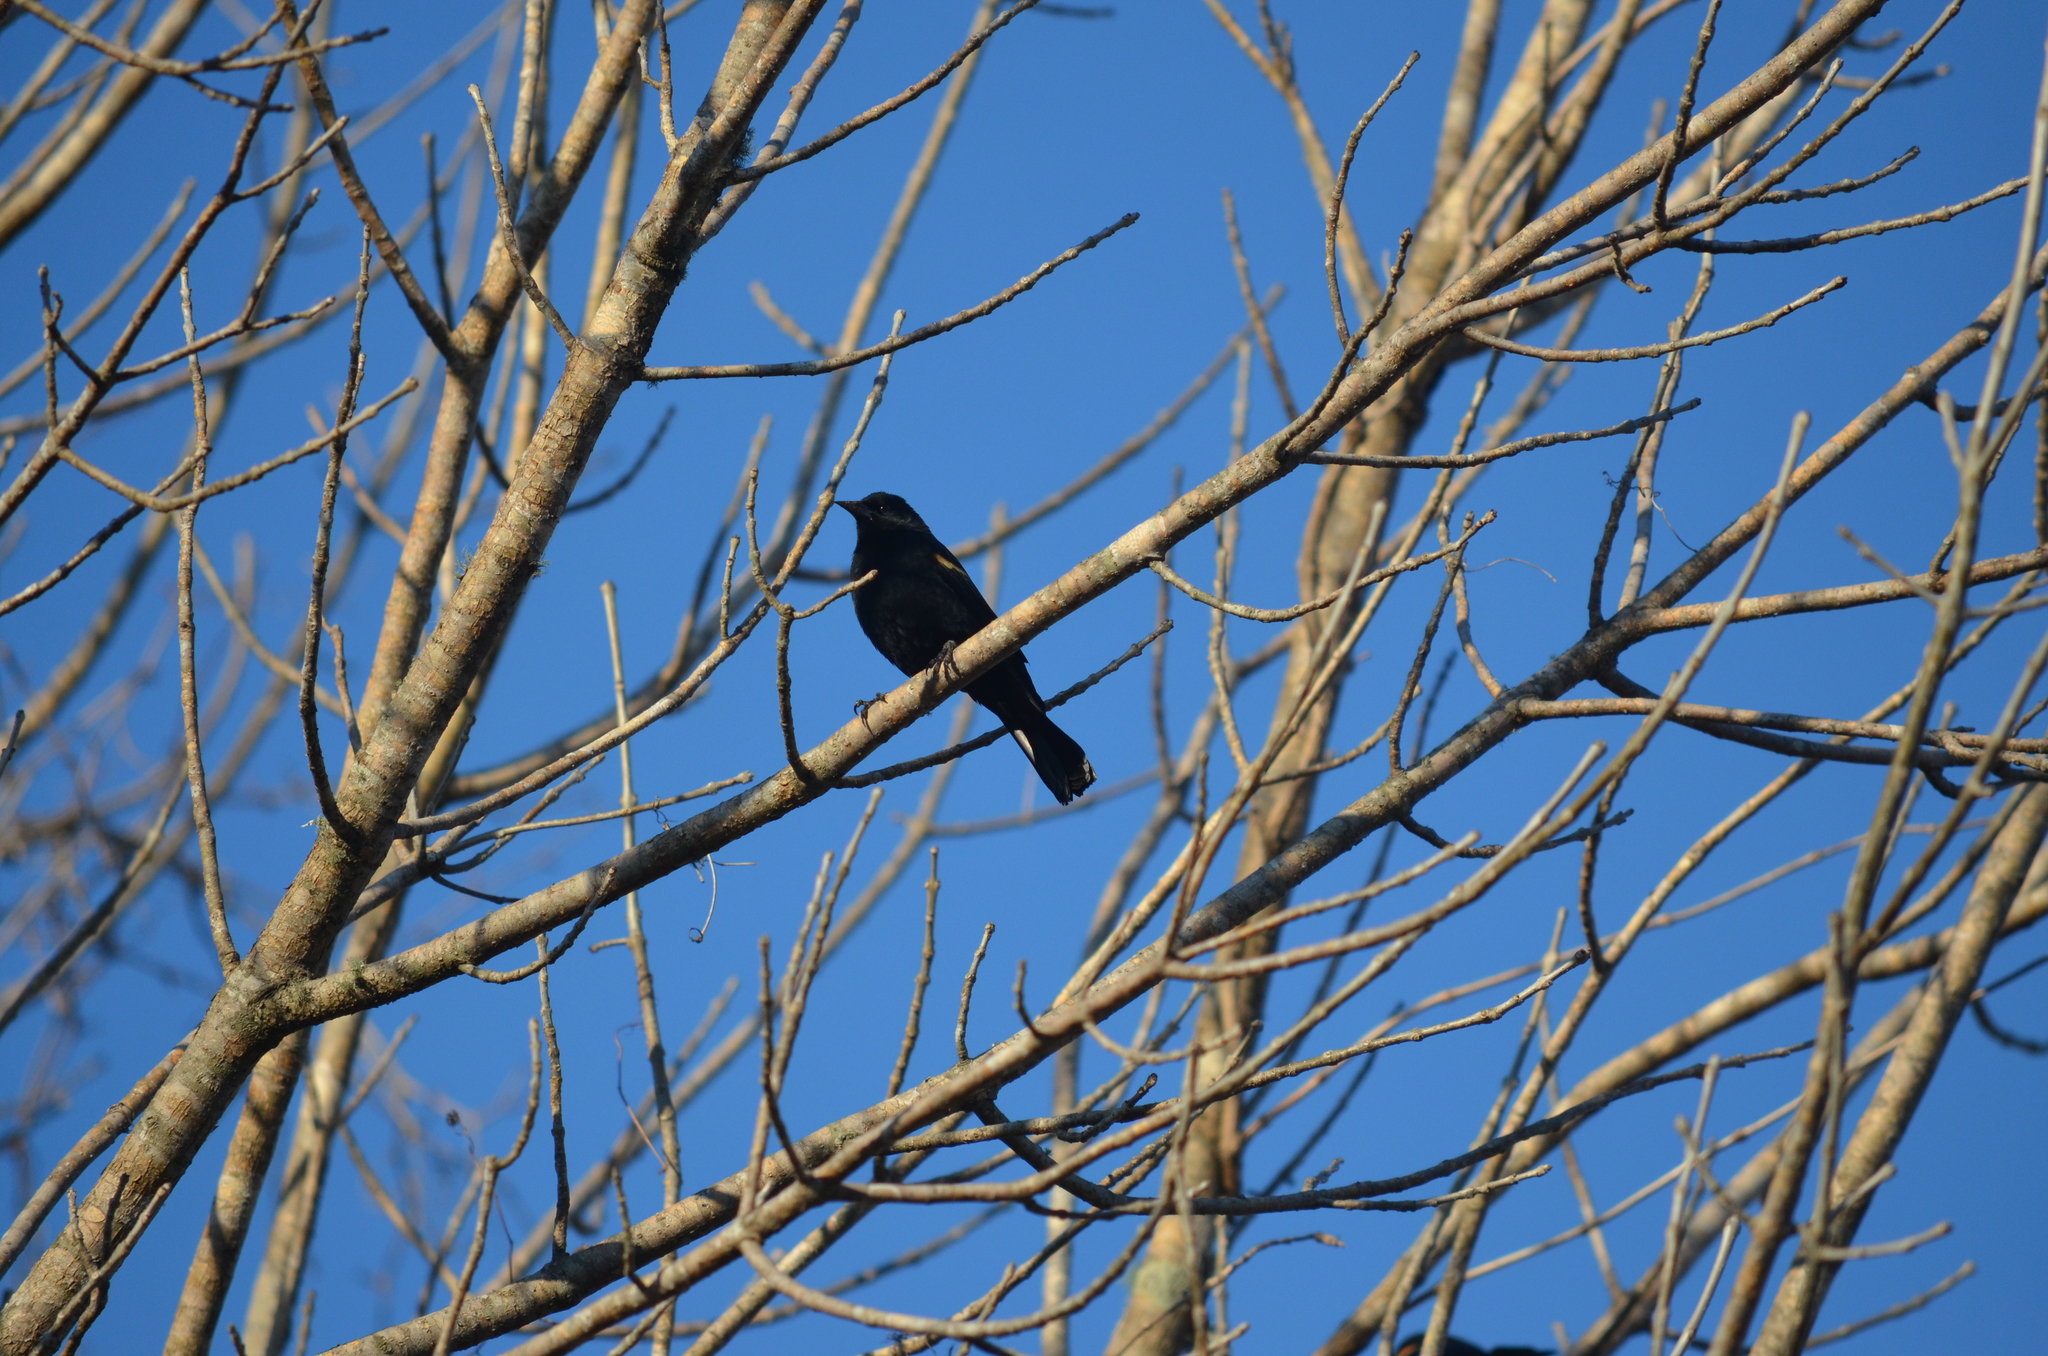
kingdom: Animalia
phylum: Chordata
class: Aves
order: Passeriformes
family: Icteridae
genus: Agelaius
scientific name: Agelaius phoeniceus
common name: Red-winged blackbird
